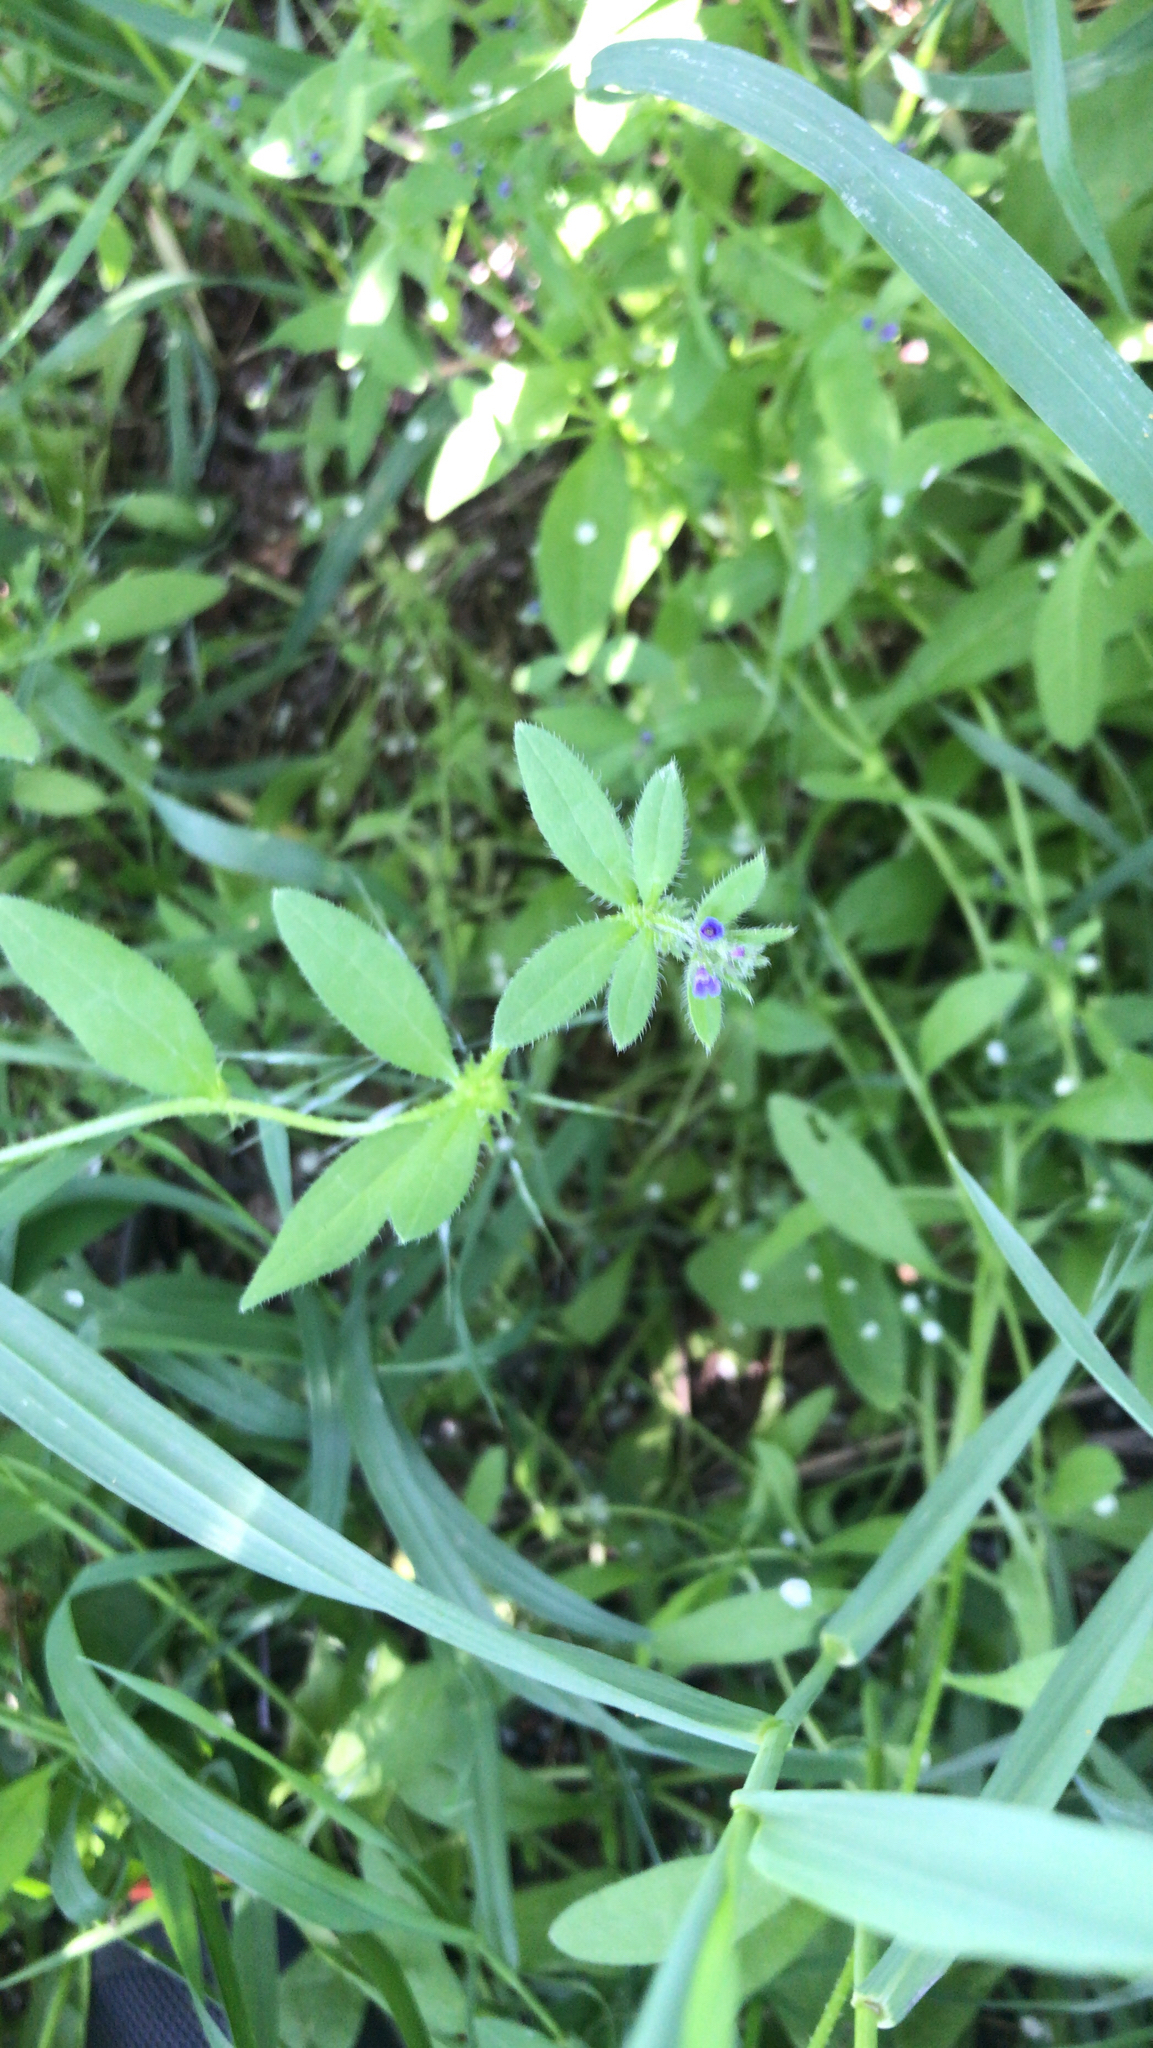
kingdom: Plantae
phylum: Tracheophyta
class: Magnoliopsida
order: Boraginales
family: Boraginaceae
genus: Asperugo
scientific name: Asperugo procumbens
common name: Madwort
